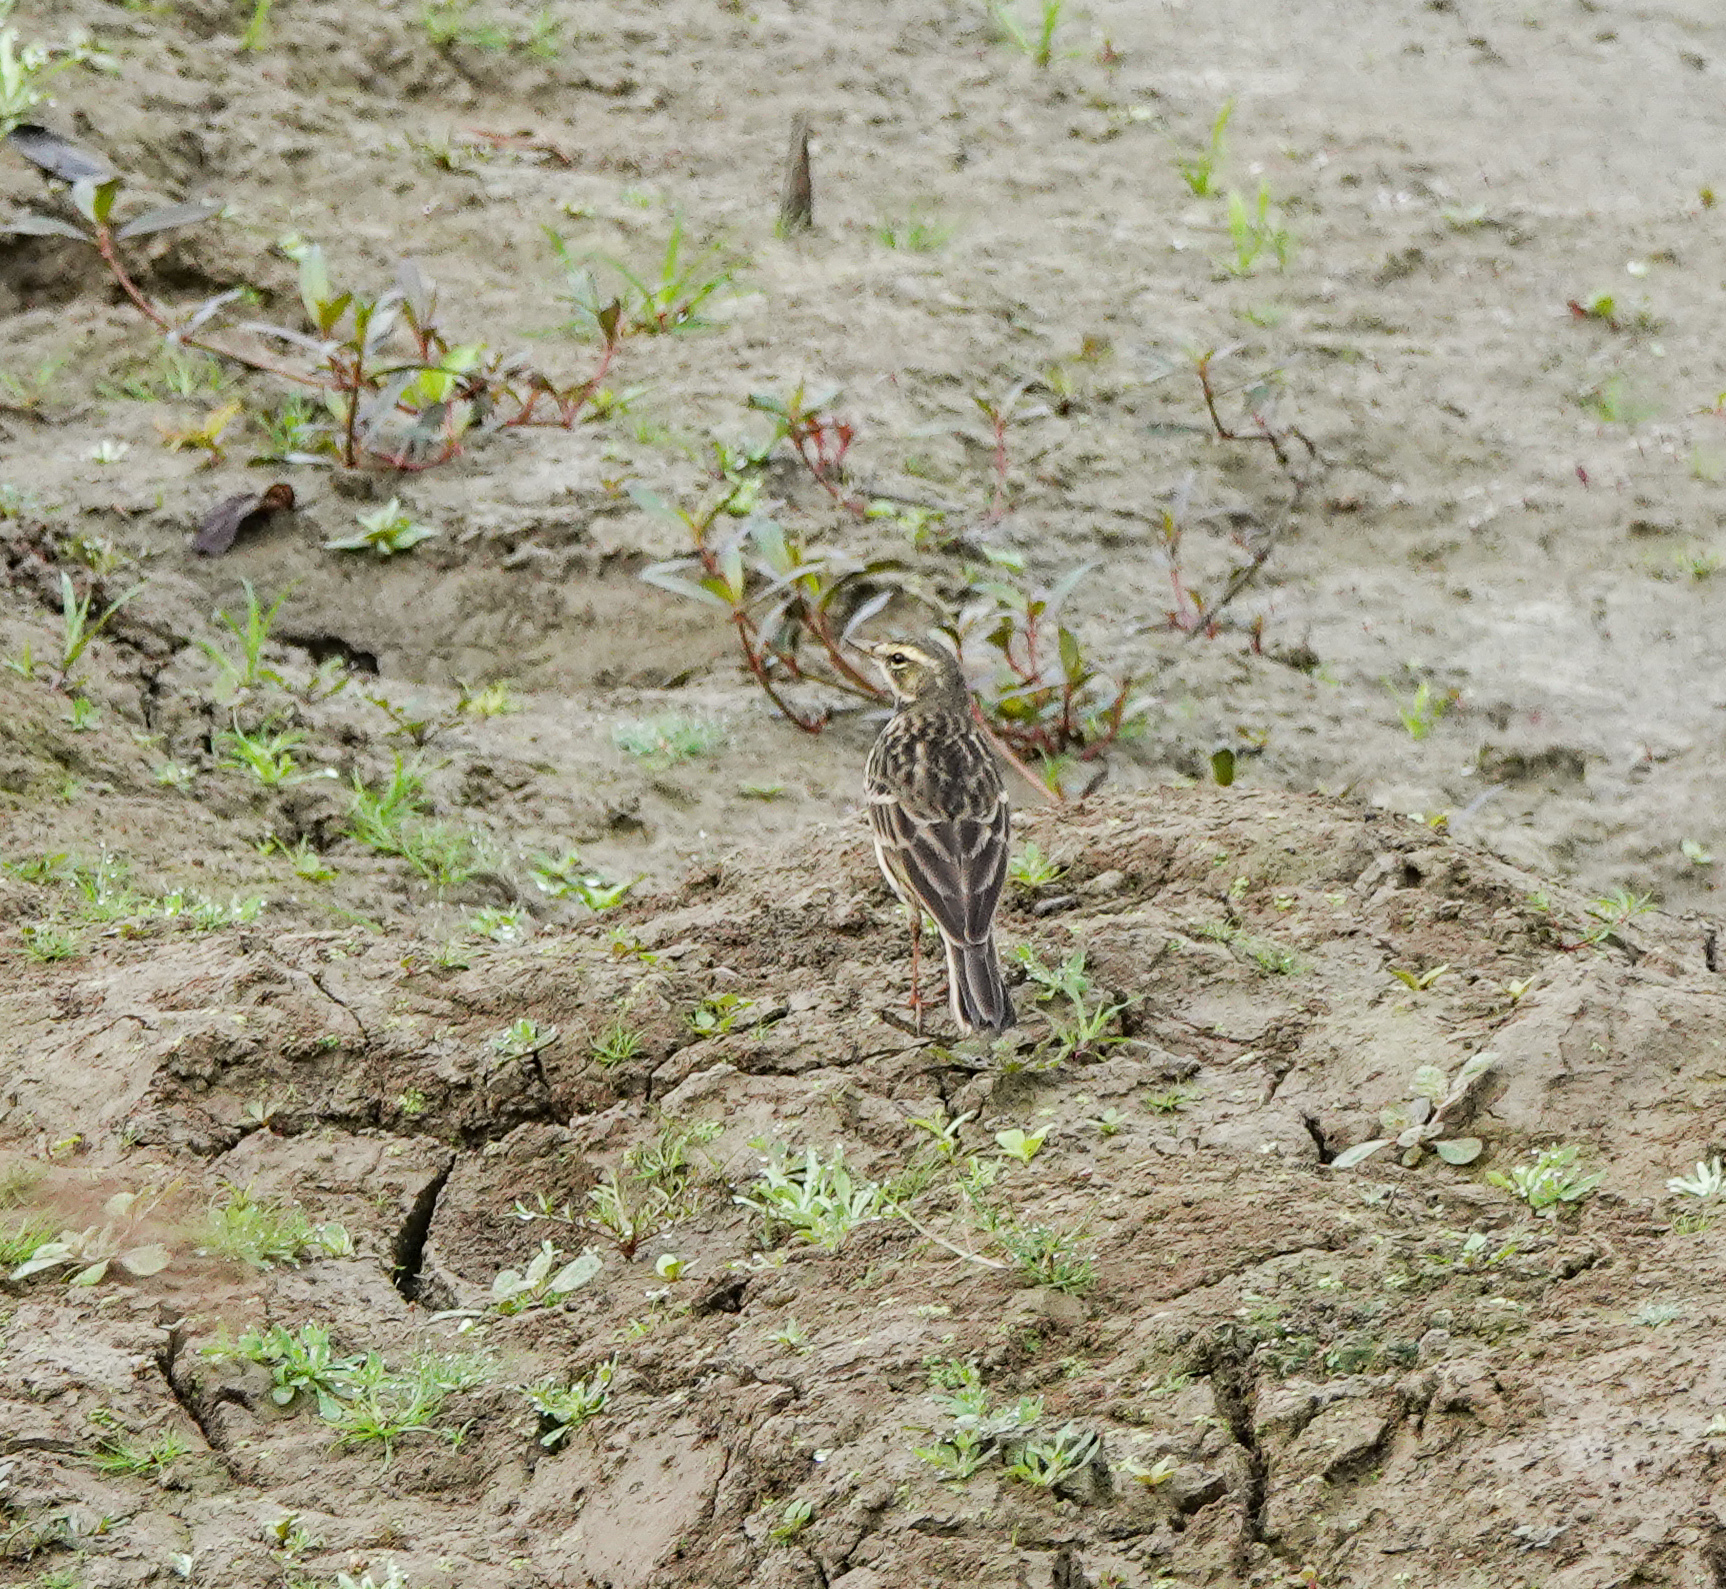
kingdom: Animalia
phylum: Chordata
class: Aves
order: Passeriformes
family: Motacillidae
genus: Anthus
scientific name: Anthus roseatus
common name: Rosy pipit
